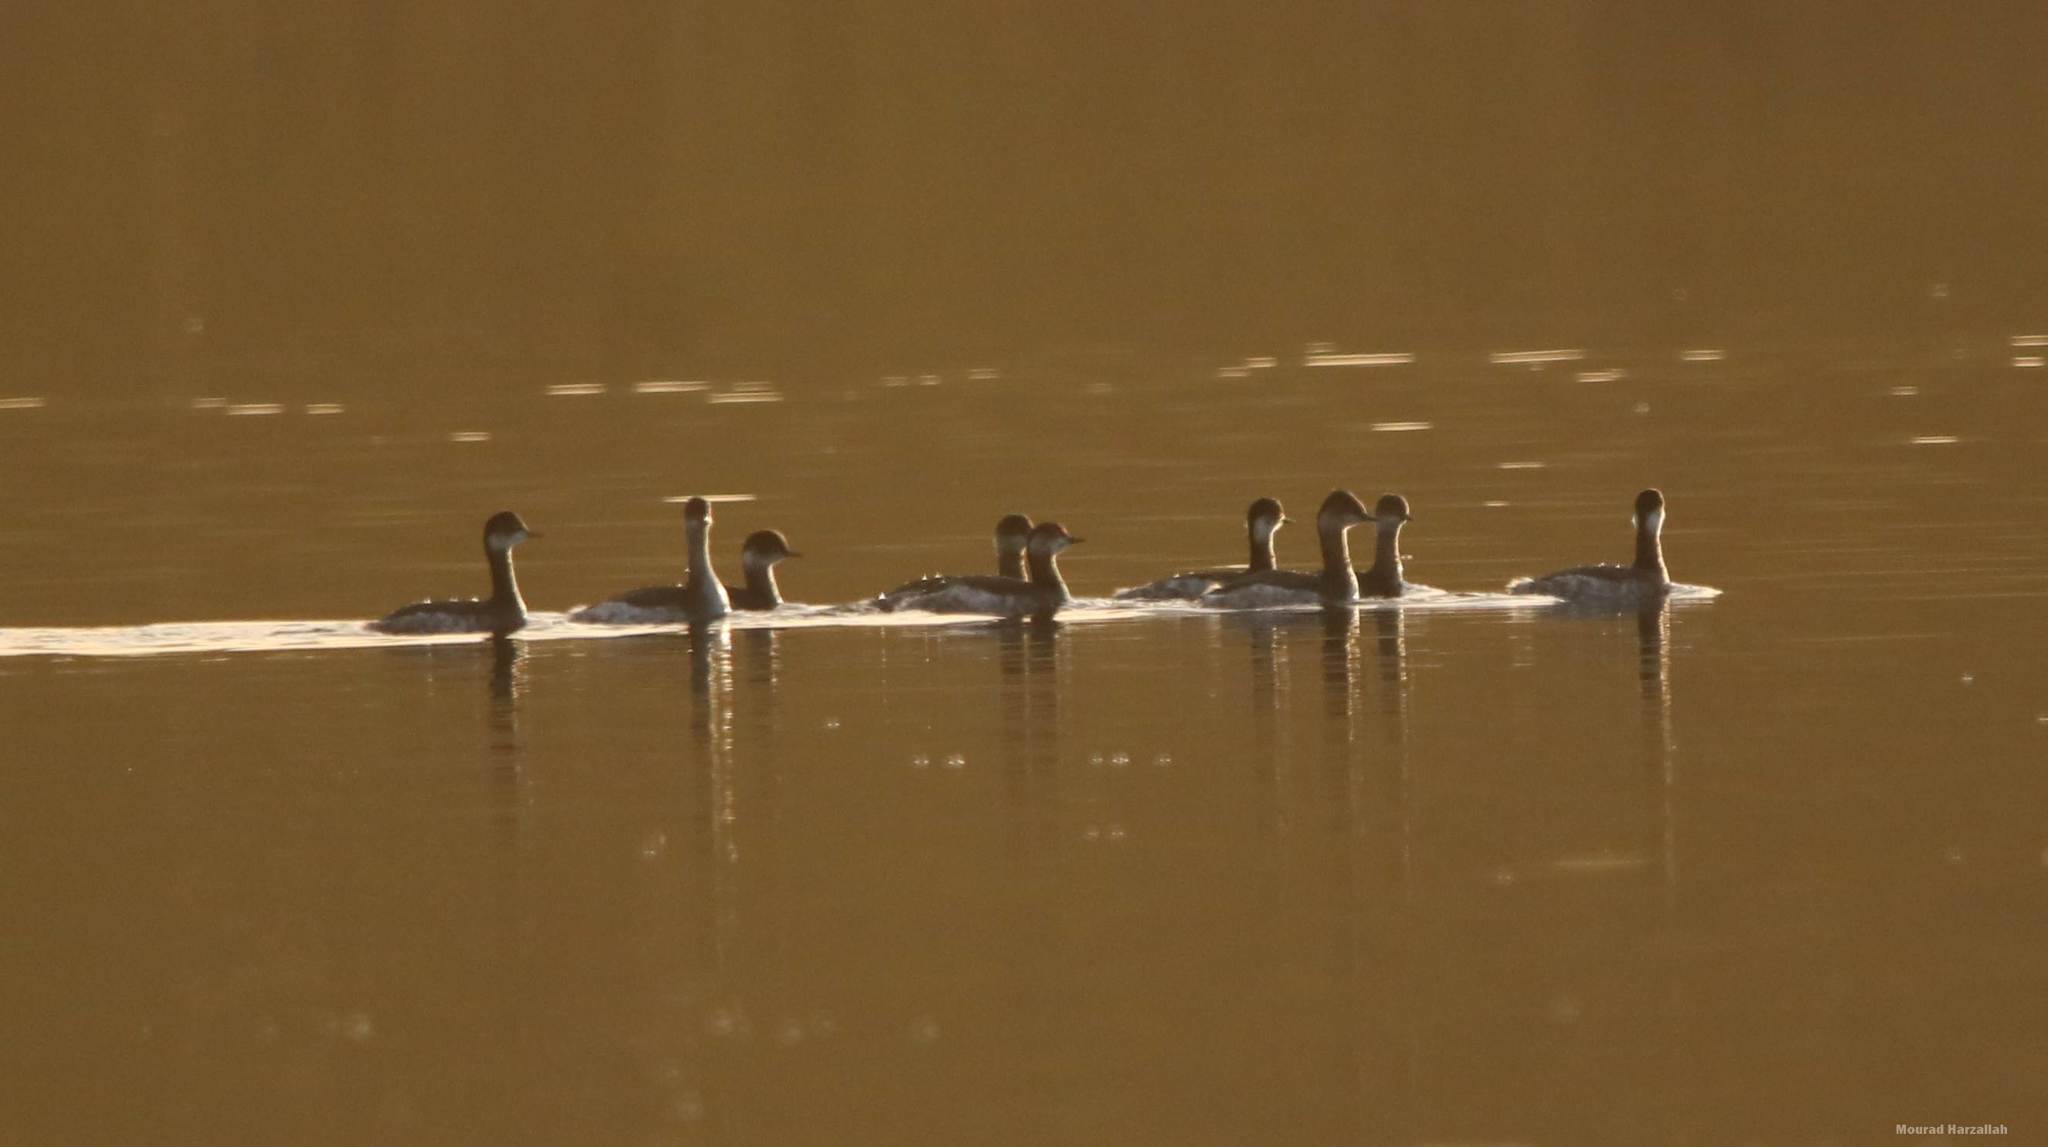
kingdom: Animalia
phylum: Chordata
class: Aves
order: Podicipediformes
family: Podicipedidae
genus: Podiceps
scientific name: Podiceps nigricollis
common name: Black-necked grebe
